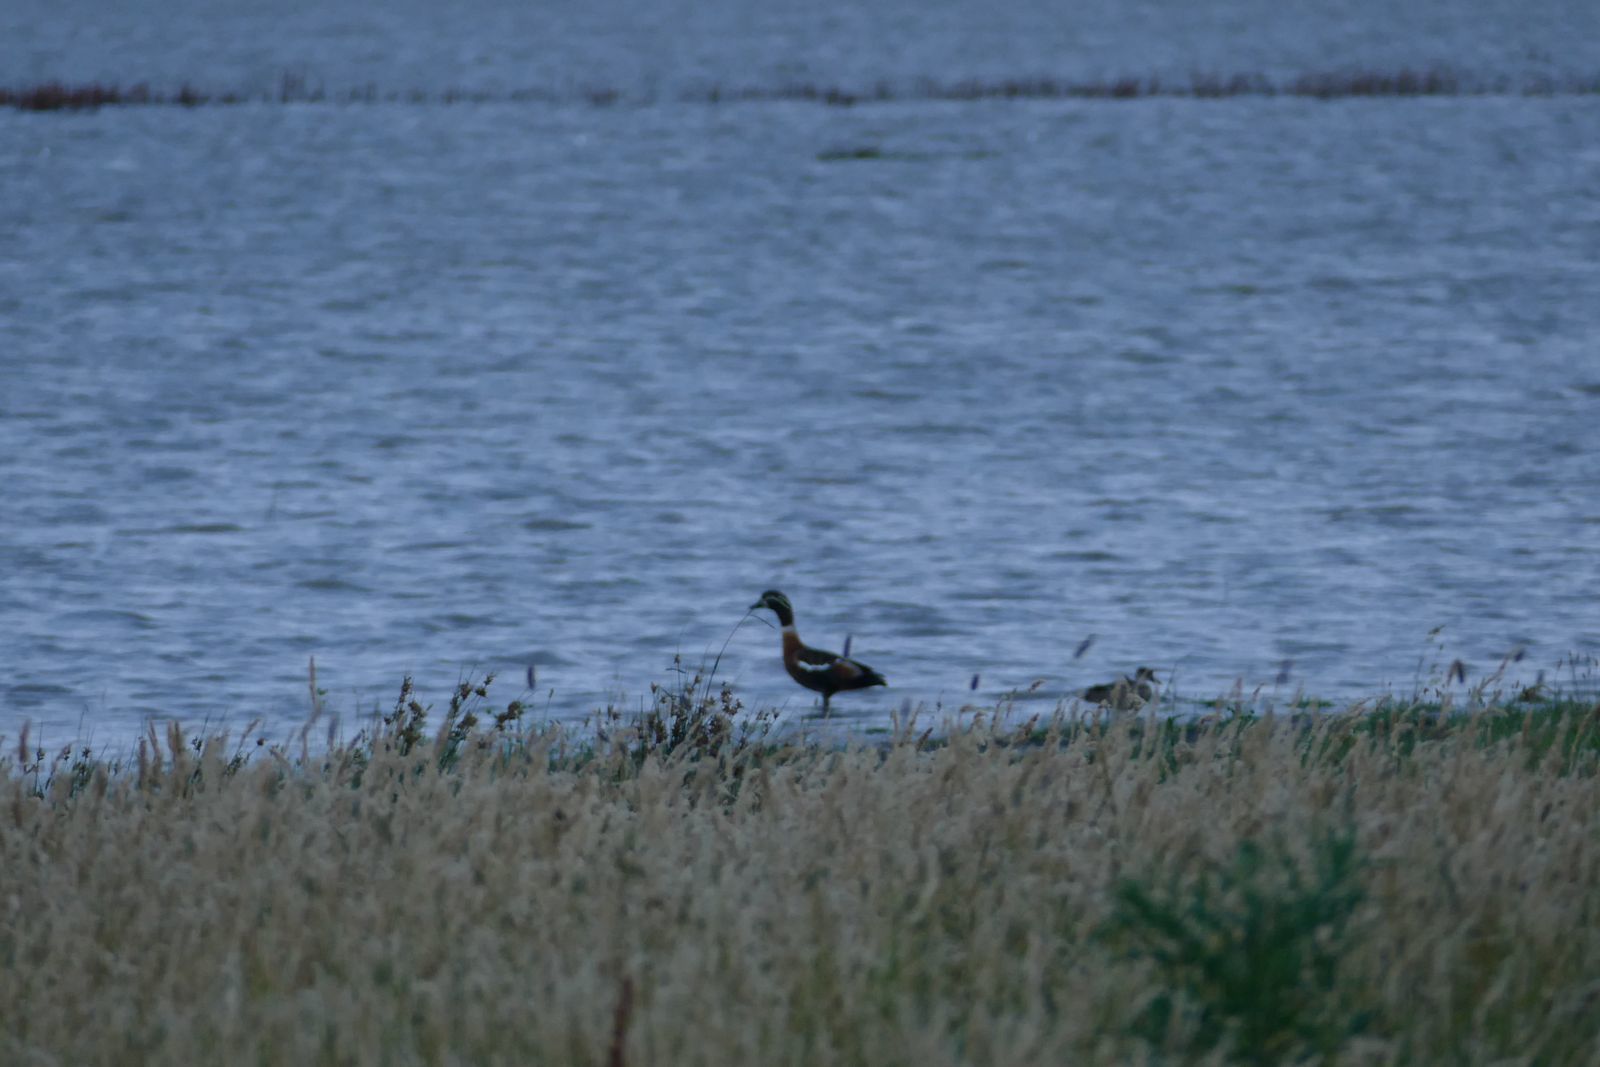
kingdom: Animalia
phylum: Chordata
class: Aves
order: Anseriformes
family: Anatidae
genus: Tadorna
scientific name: Tadorna tadornoides
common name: Australian shelduck
